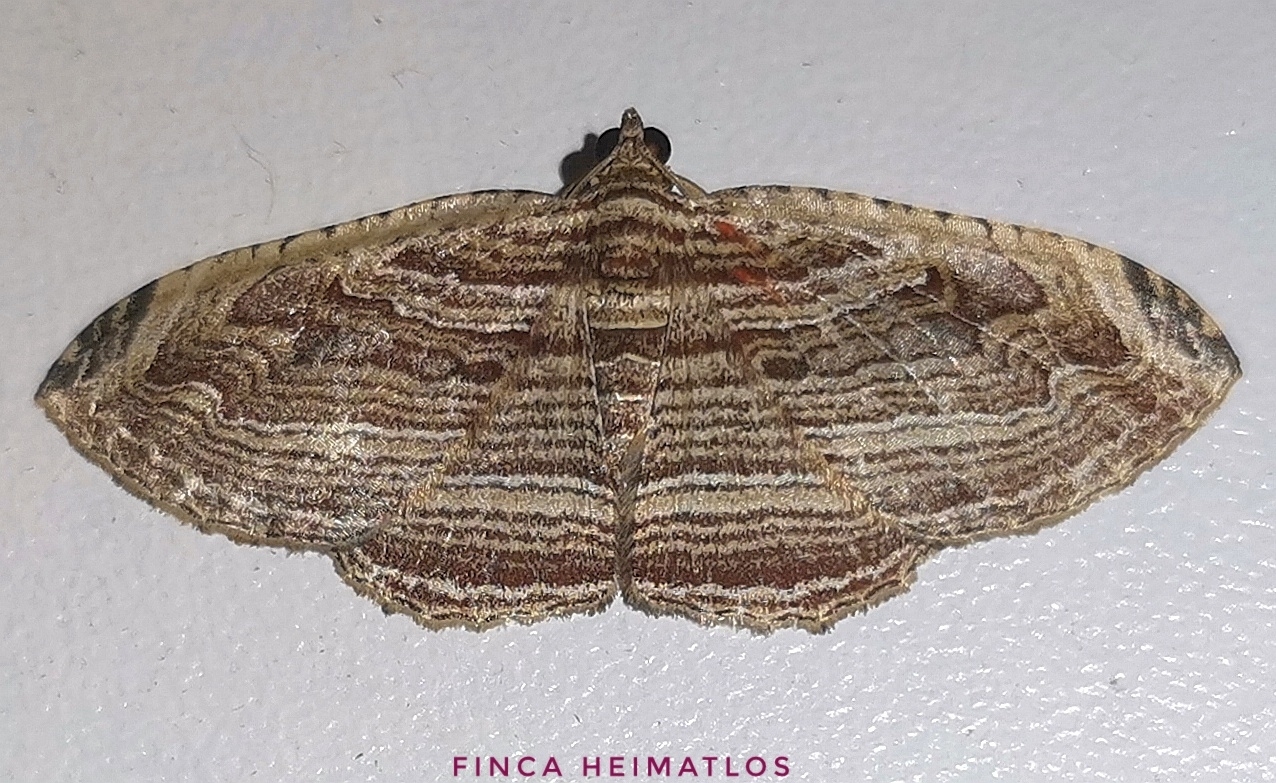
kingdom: Animalia
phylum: Arthropoda
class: Insecta
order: Lepidoptera
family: Geometridae
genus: Bagodares
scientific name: Bagodares sturnularia
